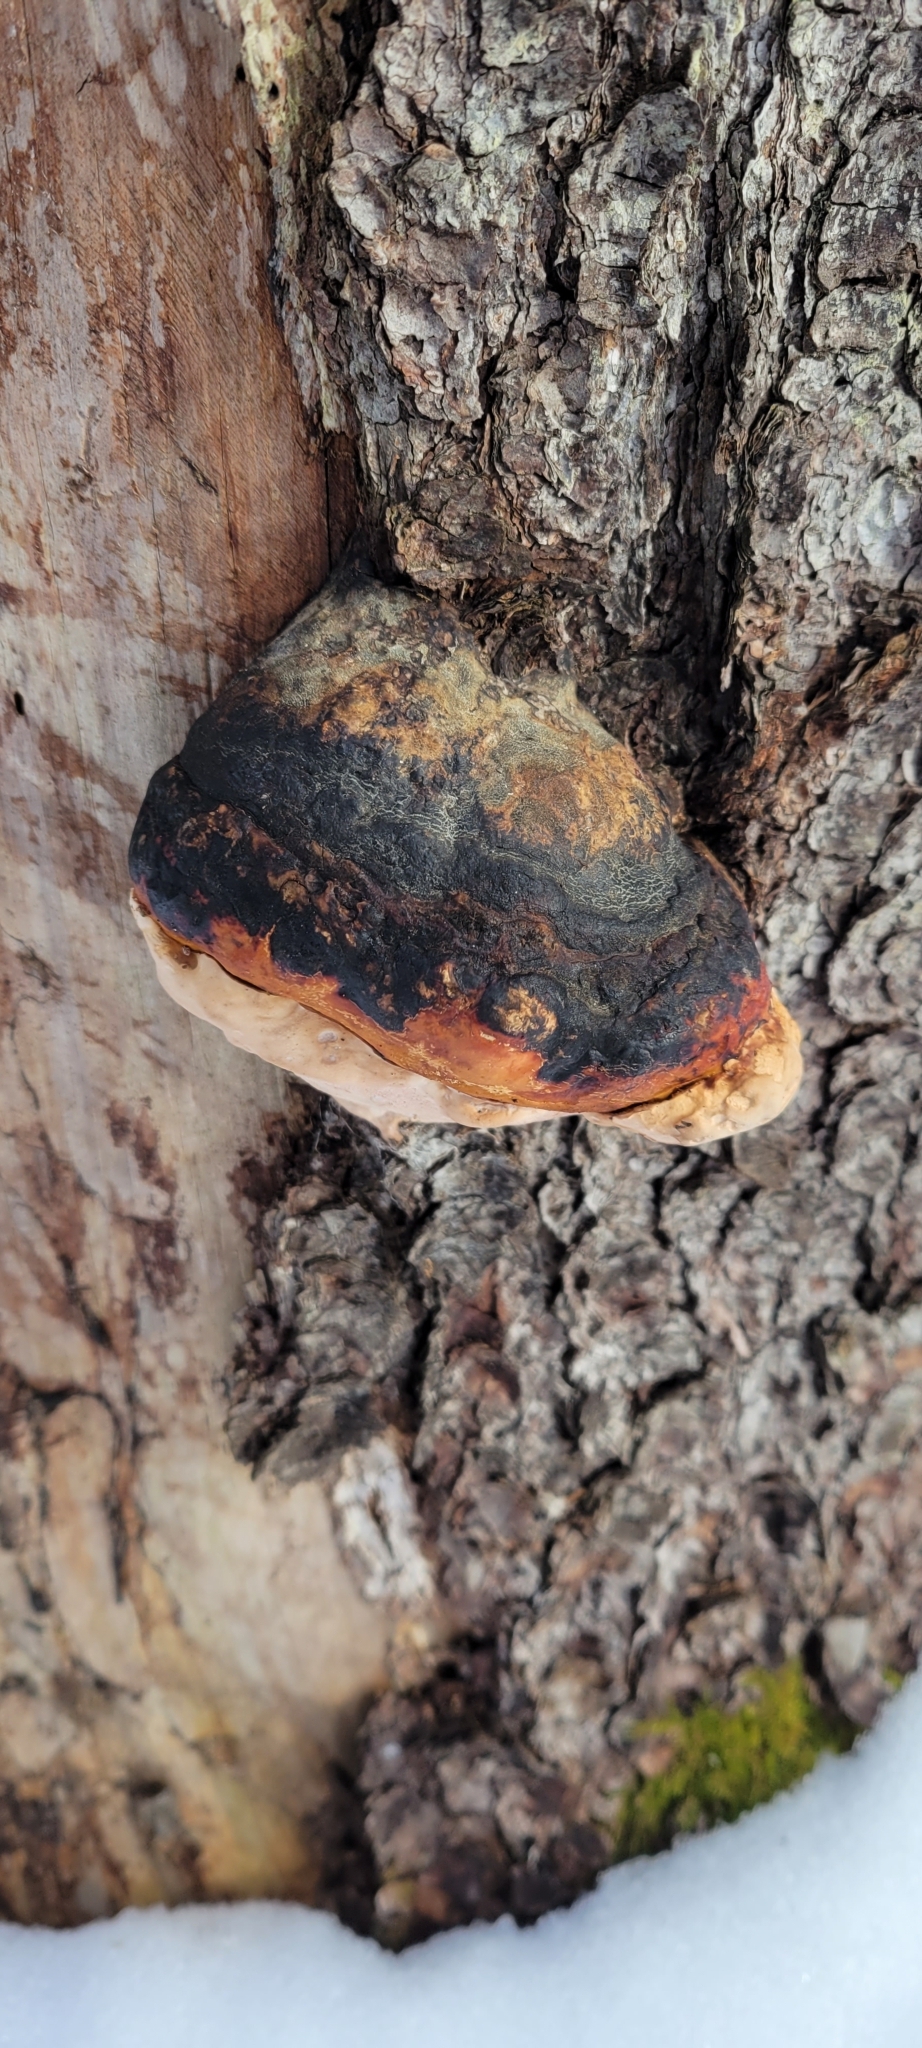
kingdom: Fungi
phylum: Basidiomycota
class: Agaricomycetes
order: Polyporales
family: Fomitopsidaceae
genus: Fomitopsis
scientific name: Fomitopsis mounceae
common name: Northern red belt
